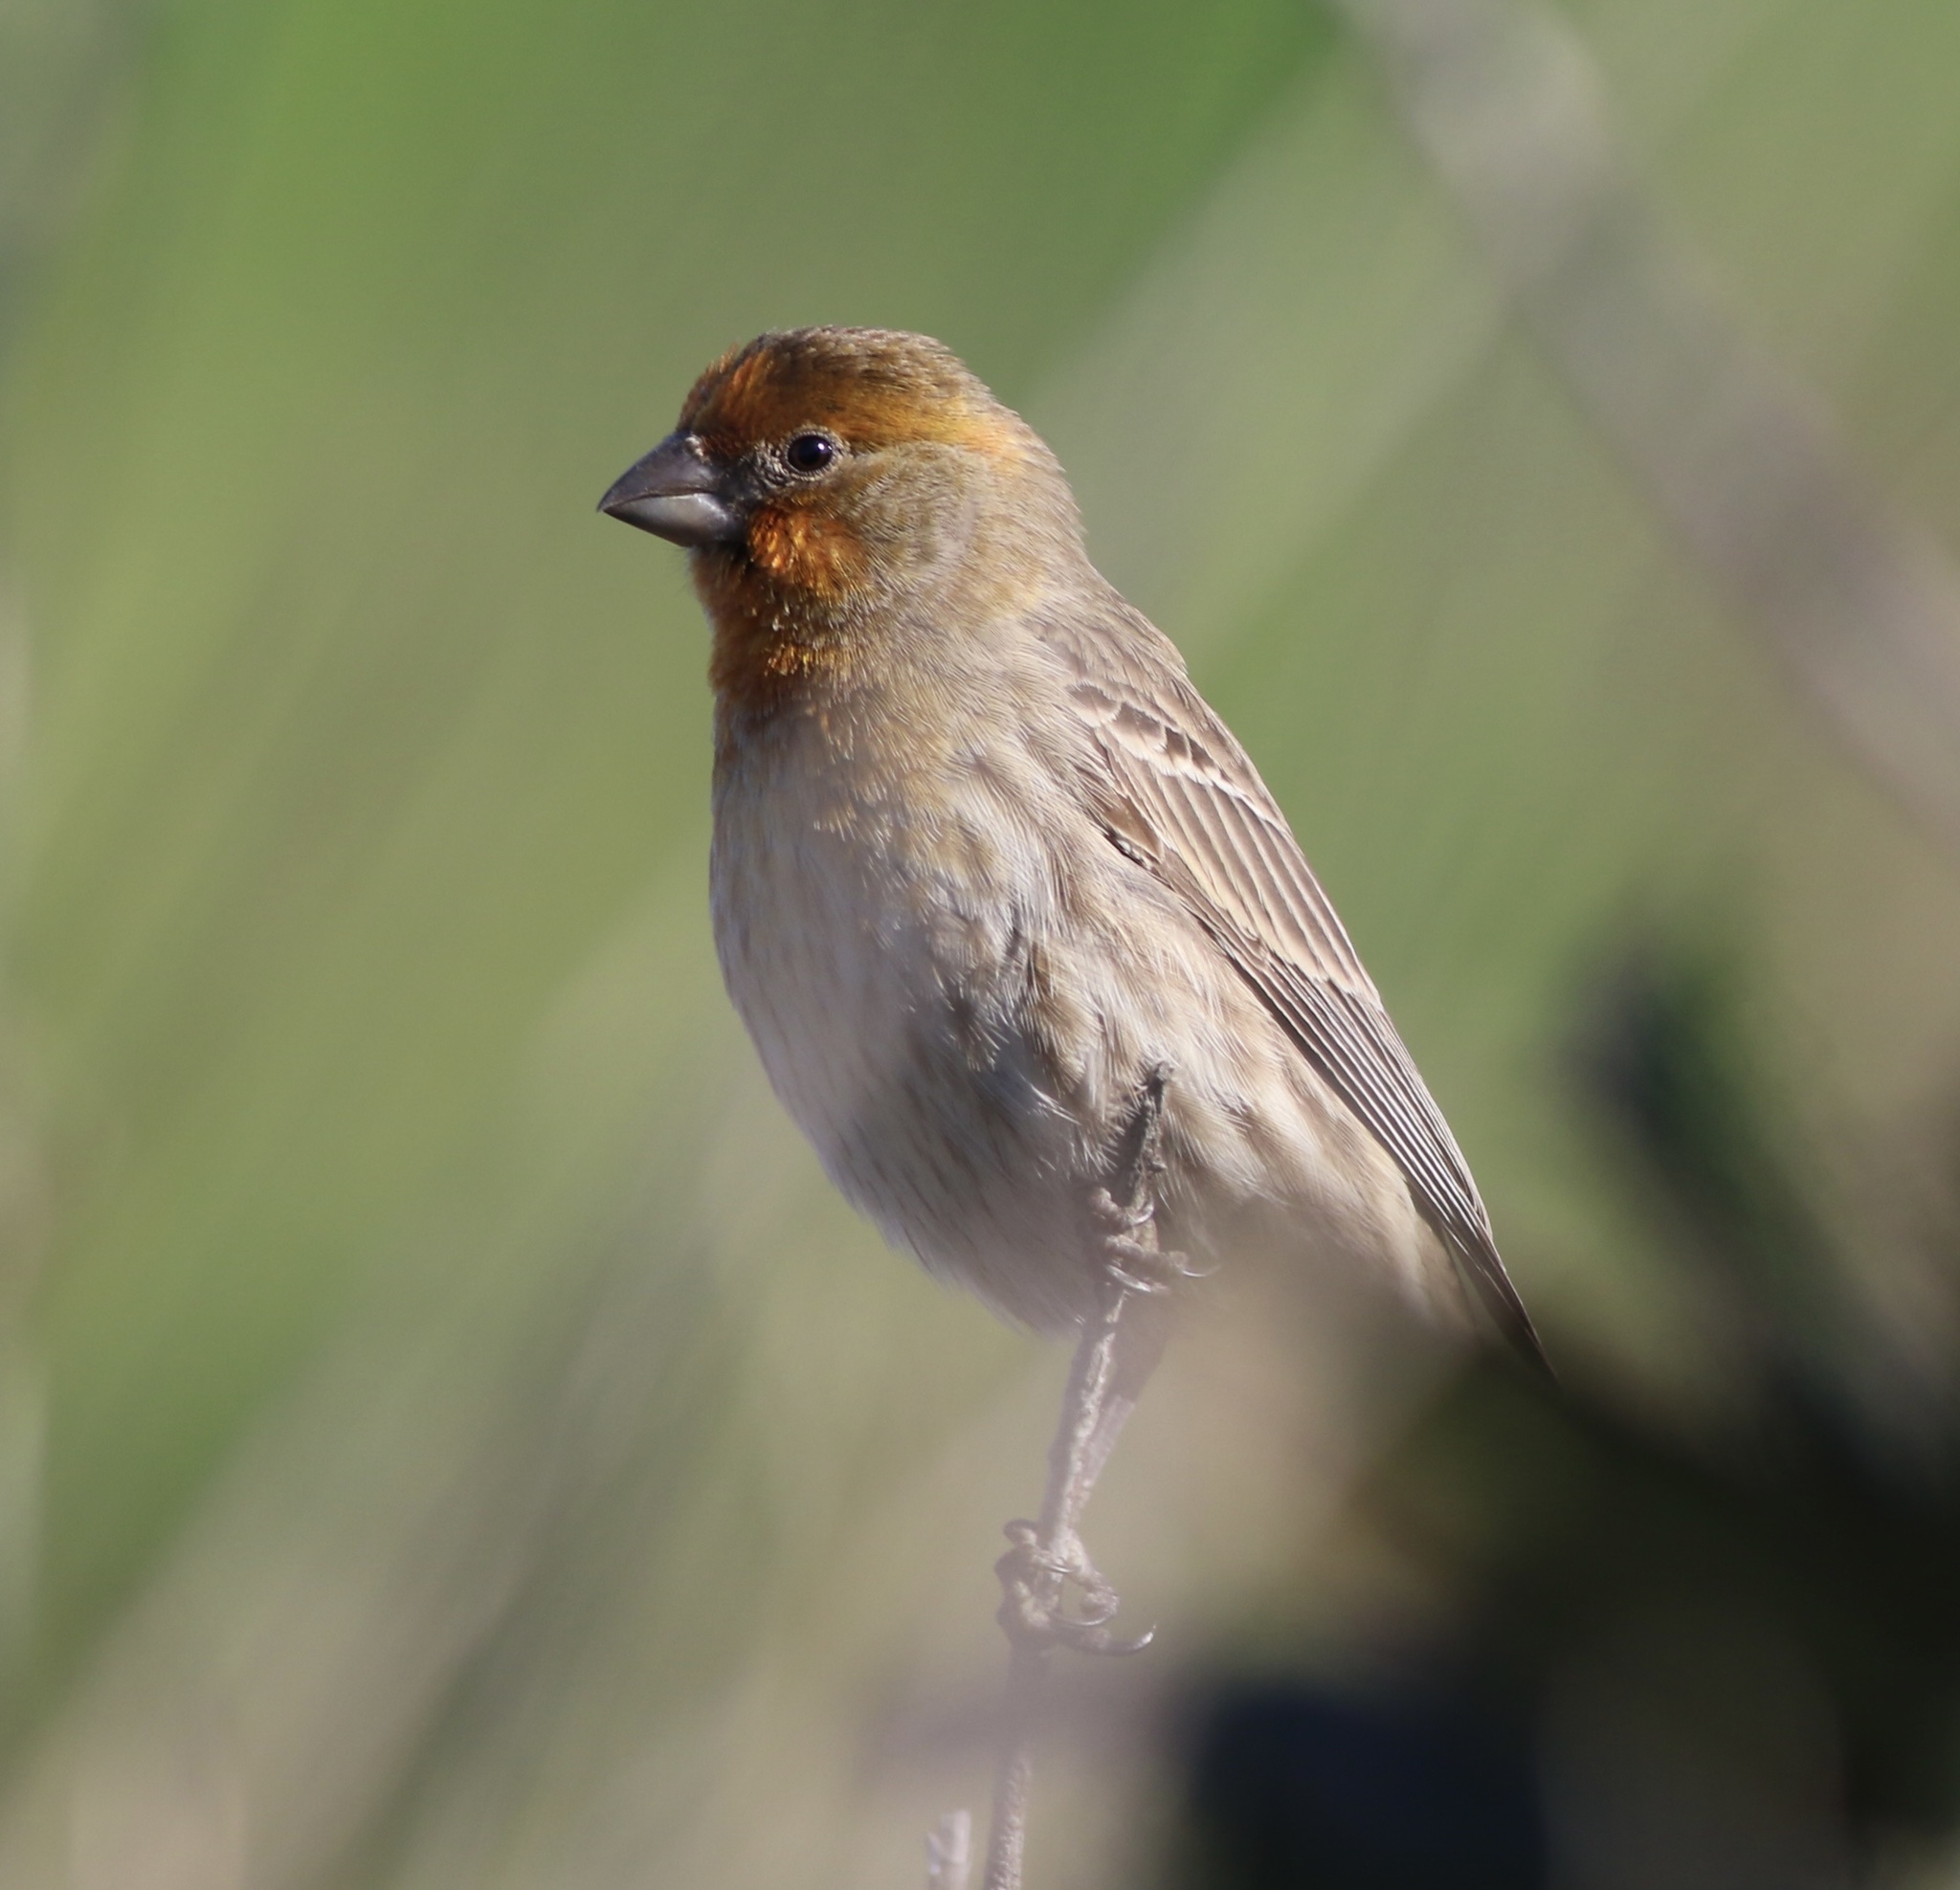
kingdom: Animalia
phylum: Chordata
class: Aves
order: Passeriformes
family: Fringillidae
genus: Haemorhous
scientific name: Haemorhous mexicanus
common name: House finch
